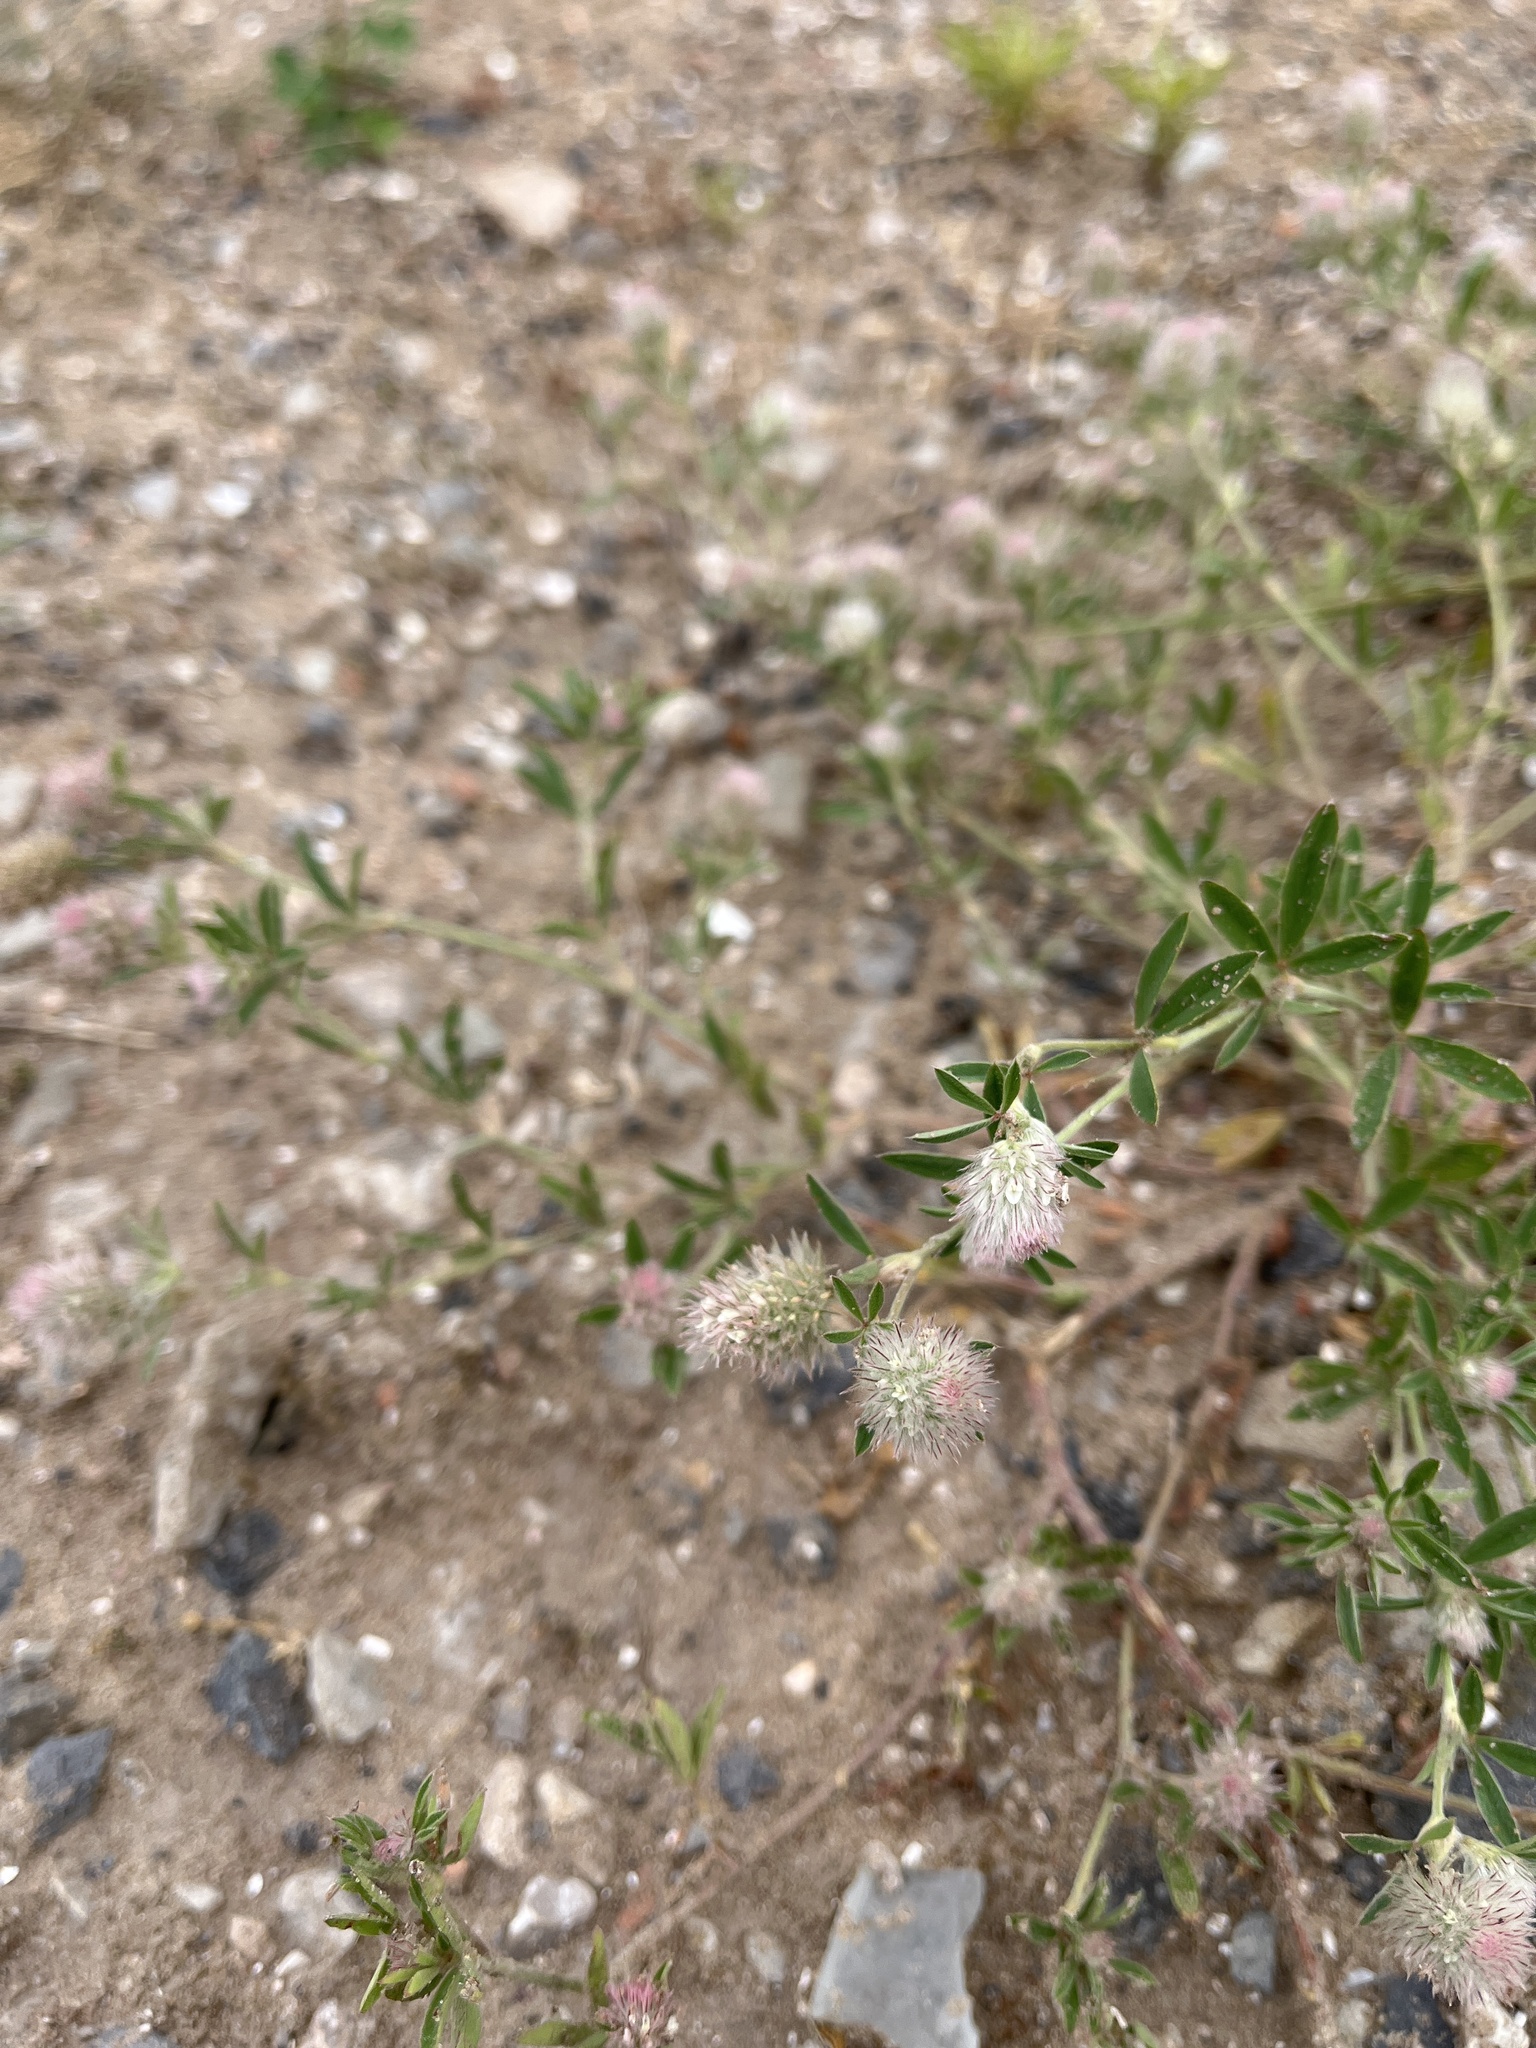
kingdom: Plantae
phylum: Tracheophyta
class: Magnoliopsida
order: Fabales
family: Fabaceae
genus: Trifolium
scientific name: Trifolium arvense
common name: Hare's-foot clover
